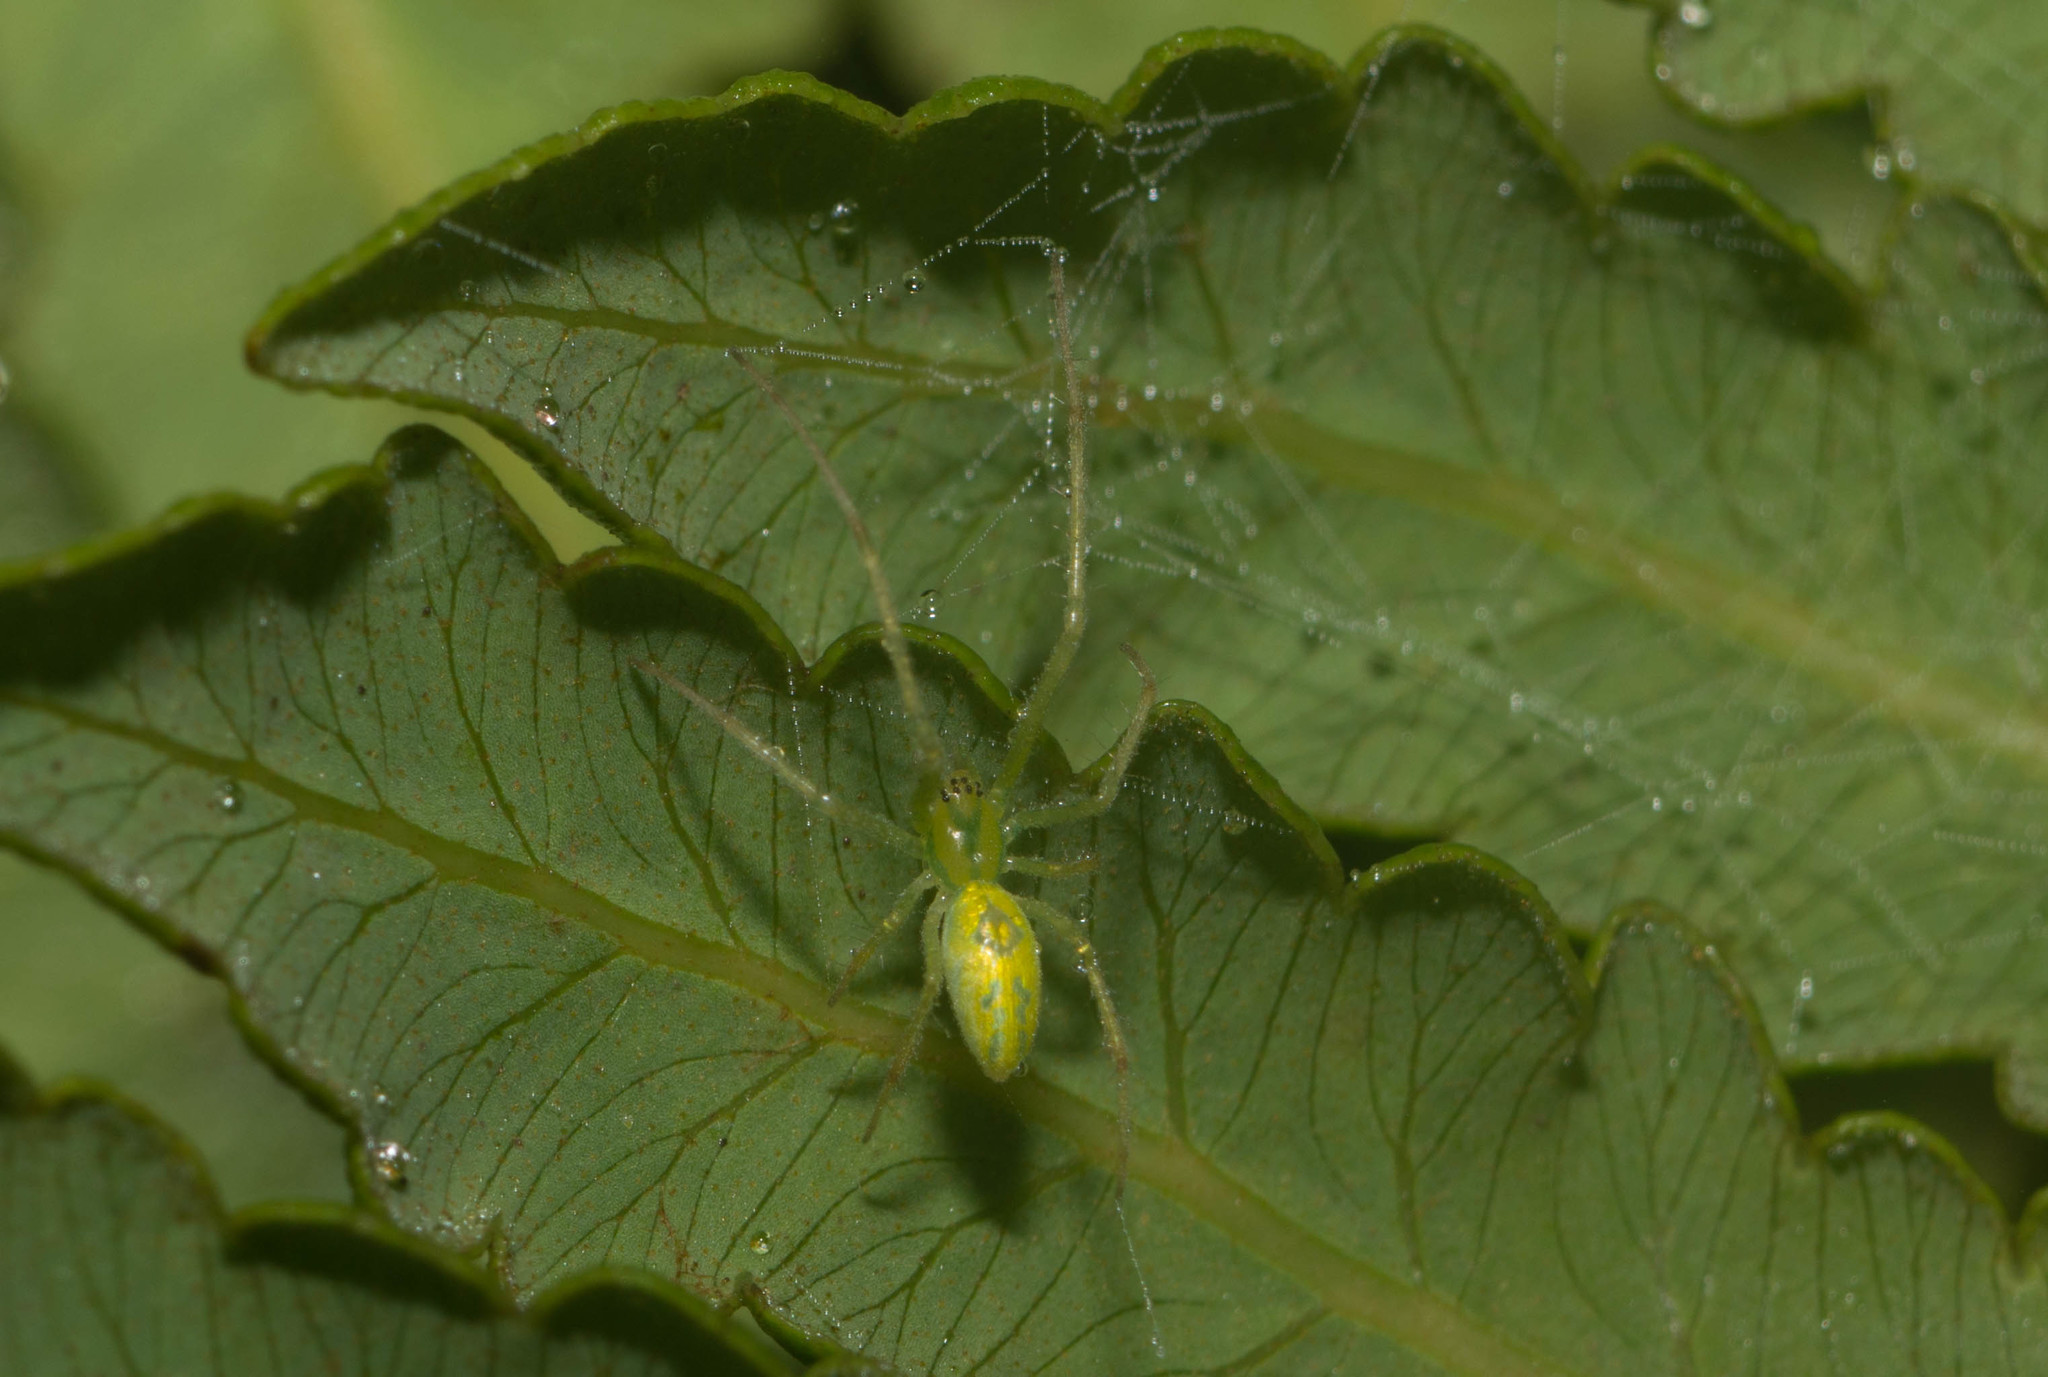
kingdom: Animalia
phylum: Arthropoda
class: Arachnida
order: Araneae
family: Tetragnathidae
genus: Tetragnatha
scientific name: Tetragnatha polychromata
